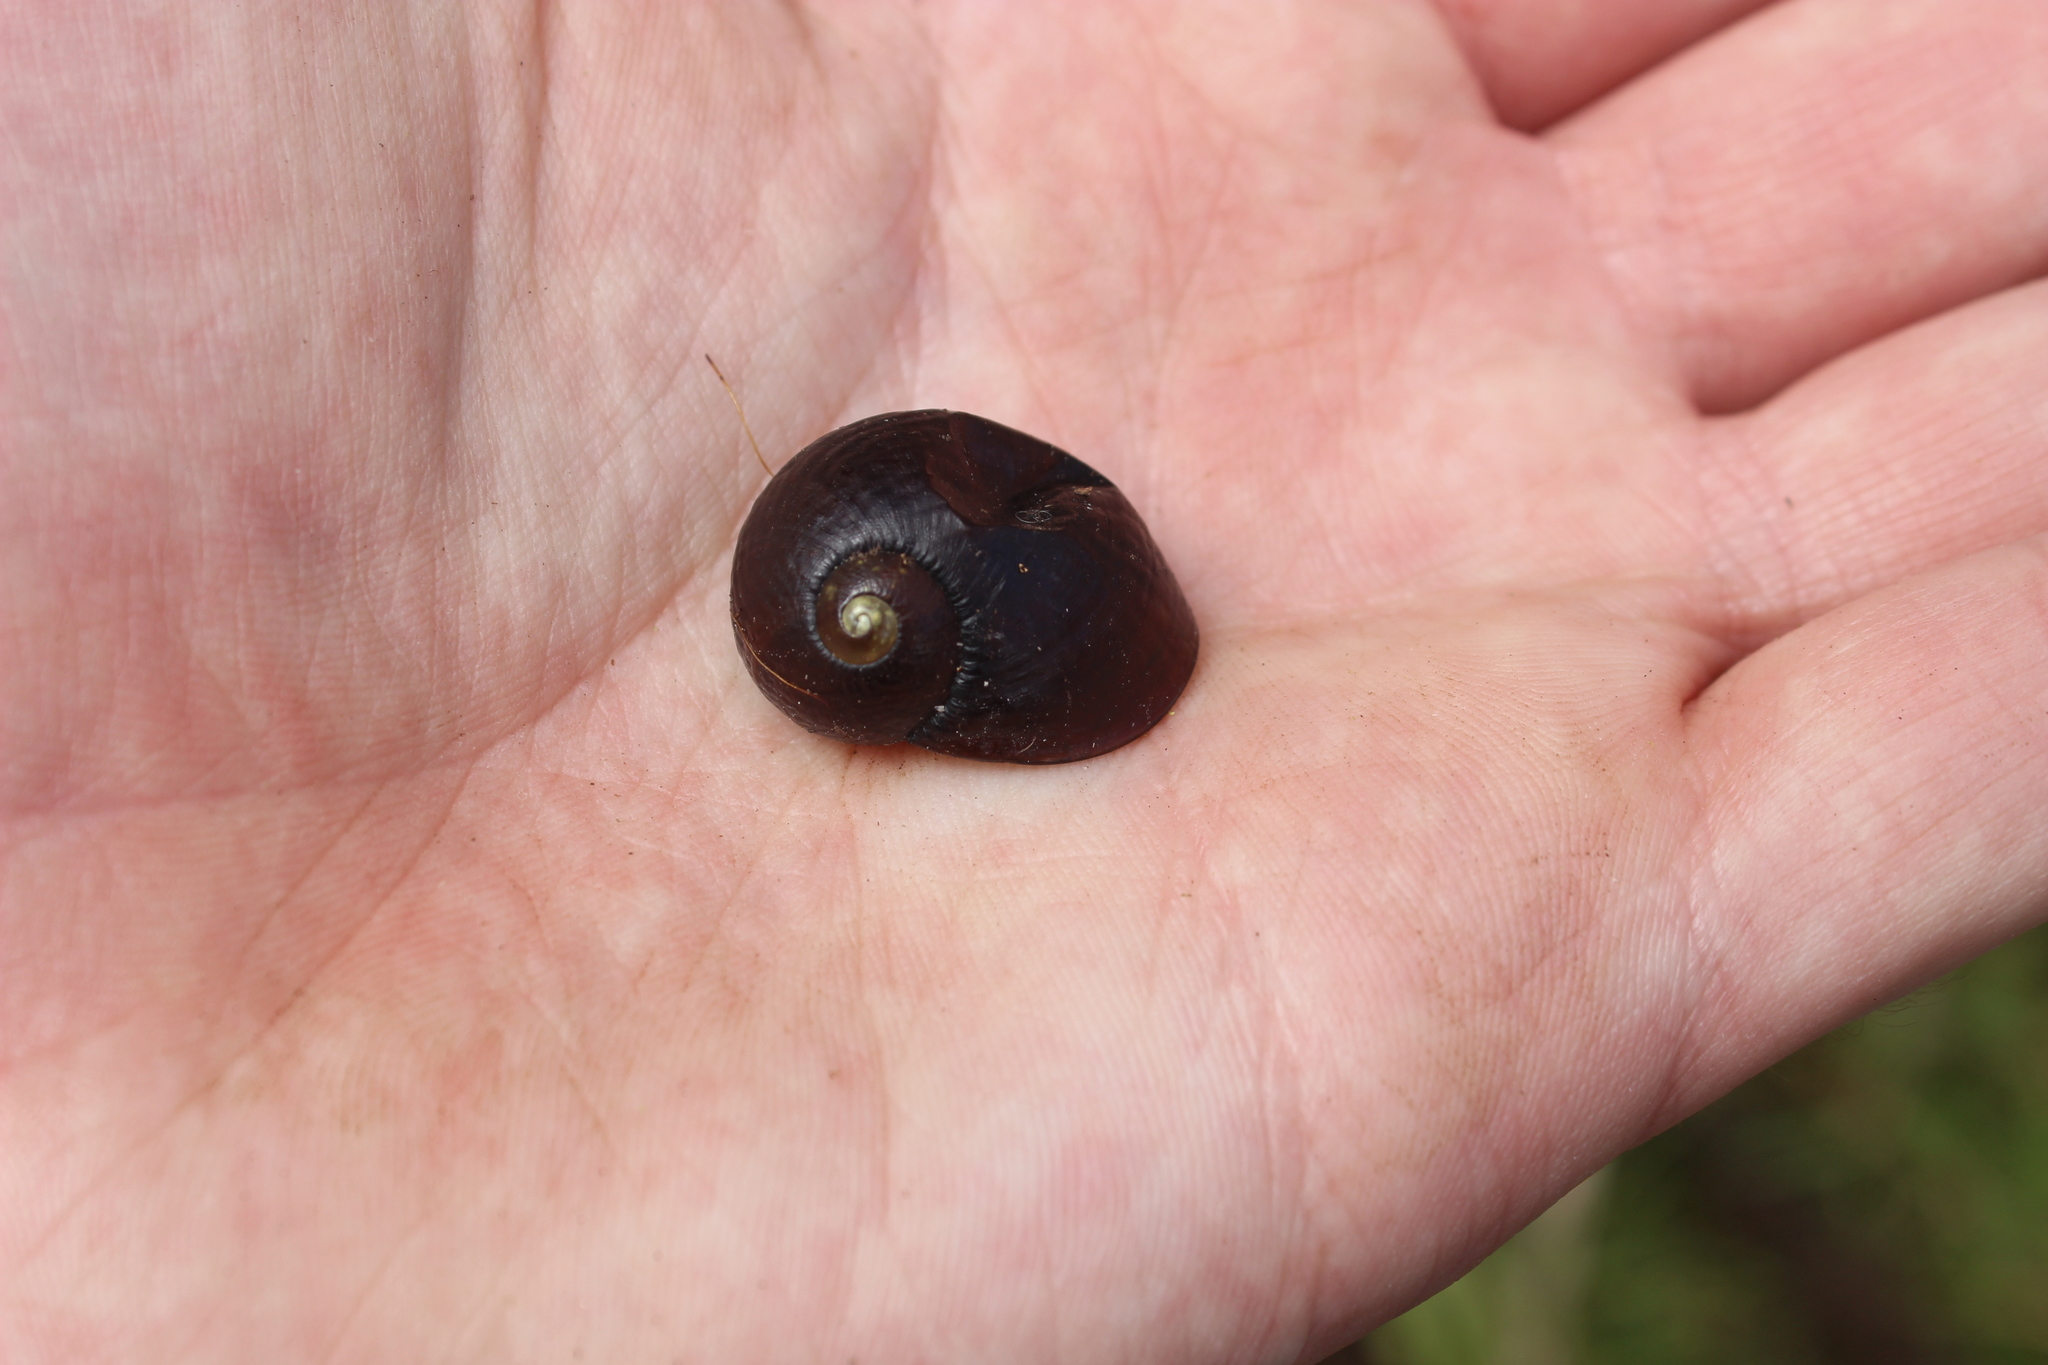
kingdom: Animalia
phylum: Mollusca
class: Gastropoda
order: Stylommatophora
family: Rhytididae
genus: Wainuia
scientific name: Wainuia urnula
